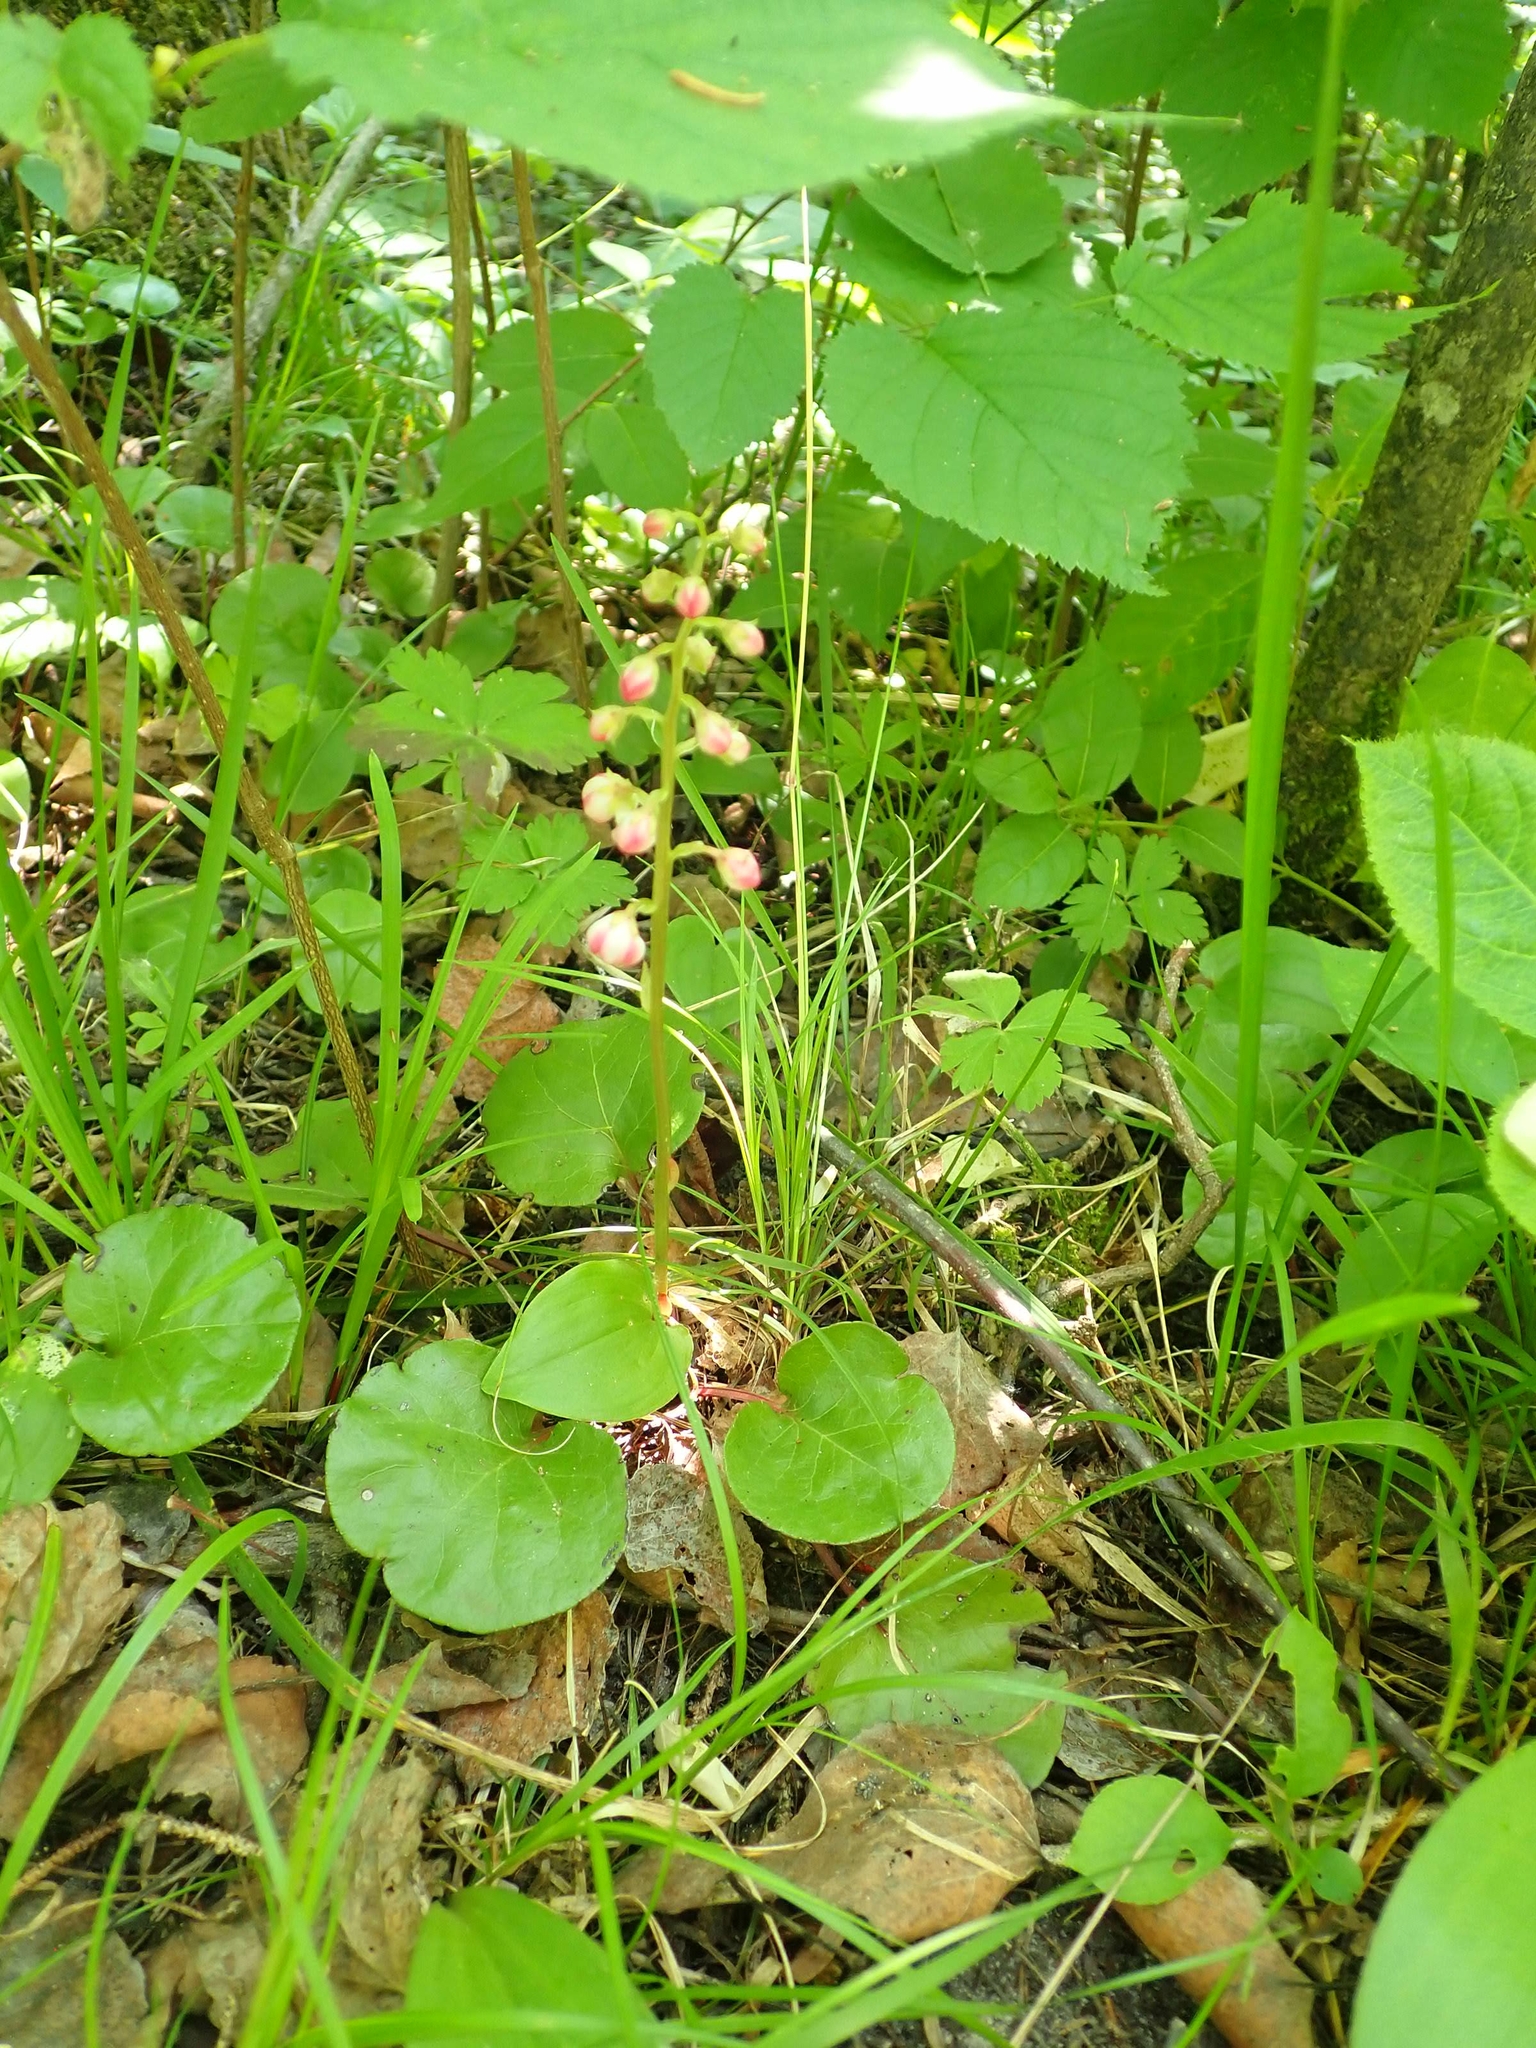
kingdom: Plantae
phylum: Tracheophyta
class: Magnoliopsida
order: Ericales
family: Ericaceae
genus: Pyrola
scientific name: Pyrola asarifolia
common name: Bog wintergreen
